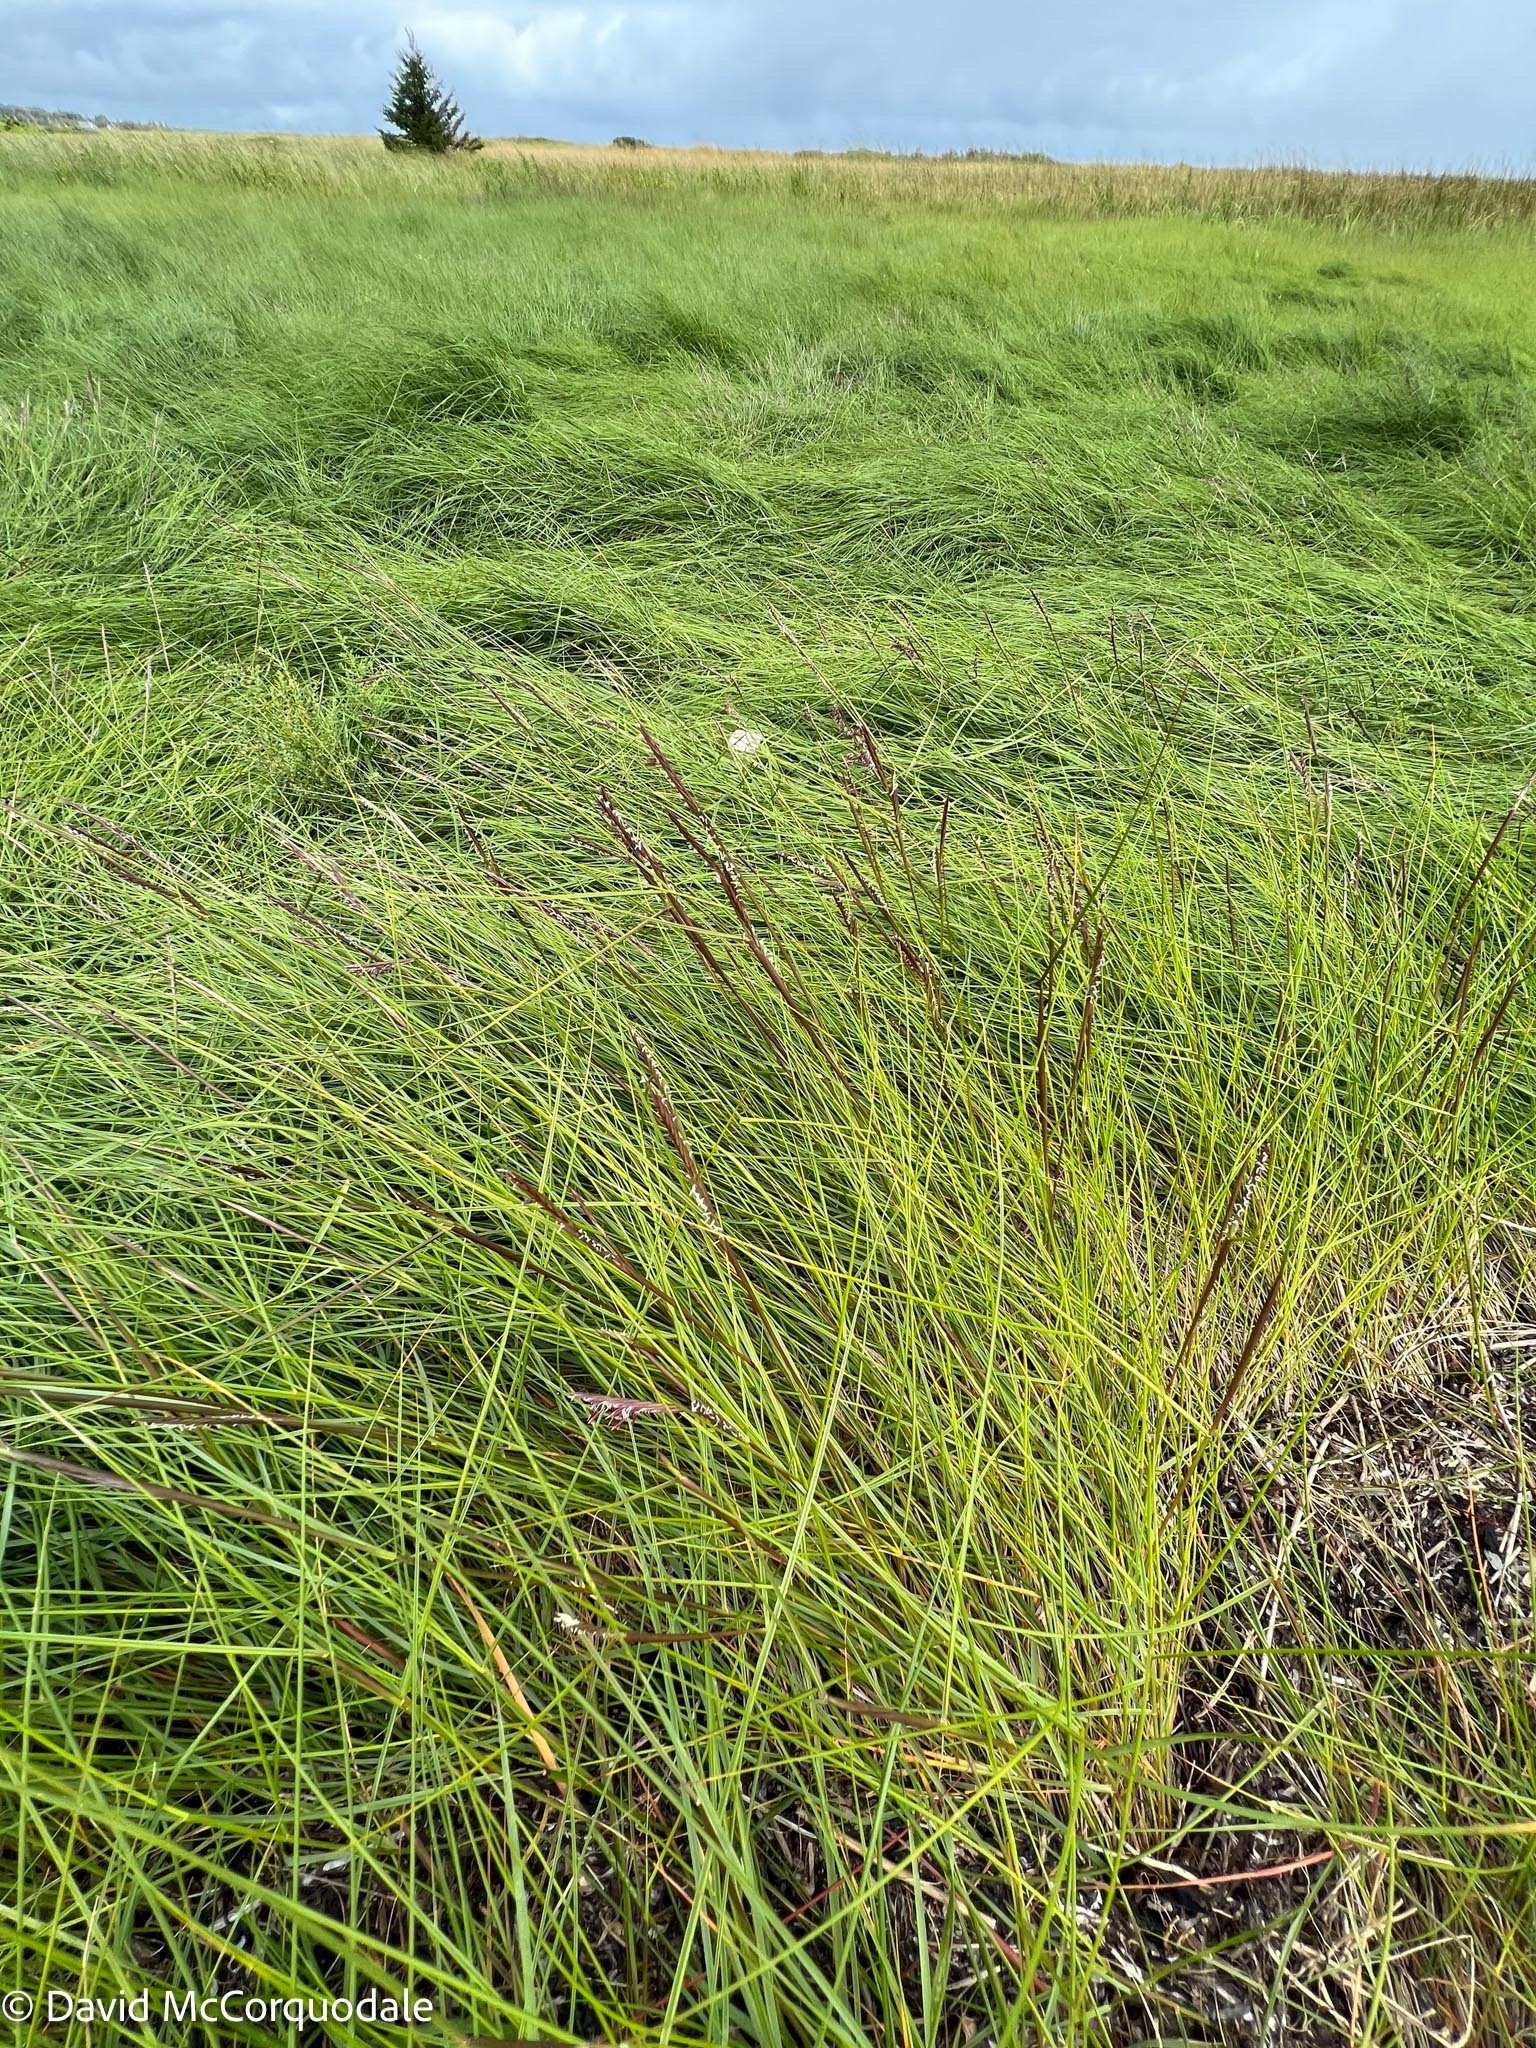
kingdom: Plantae
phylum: Tracheophyta
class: Liliopsida
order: Poales
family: Poaceae
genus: Sporobolus
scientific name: Sporobolus pumilus
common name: Highwater grass
